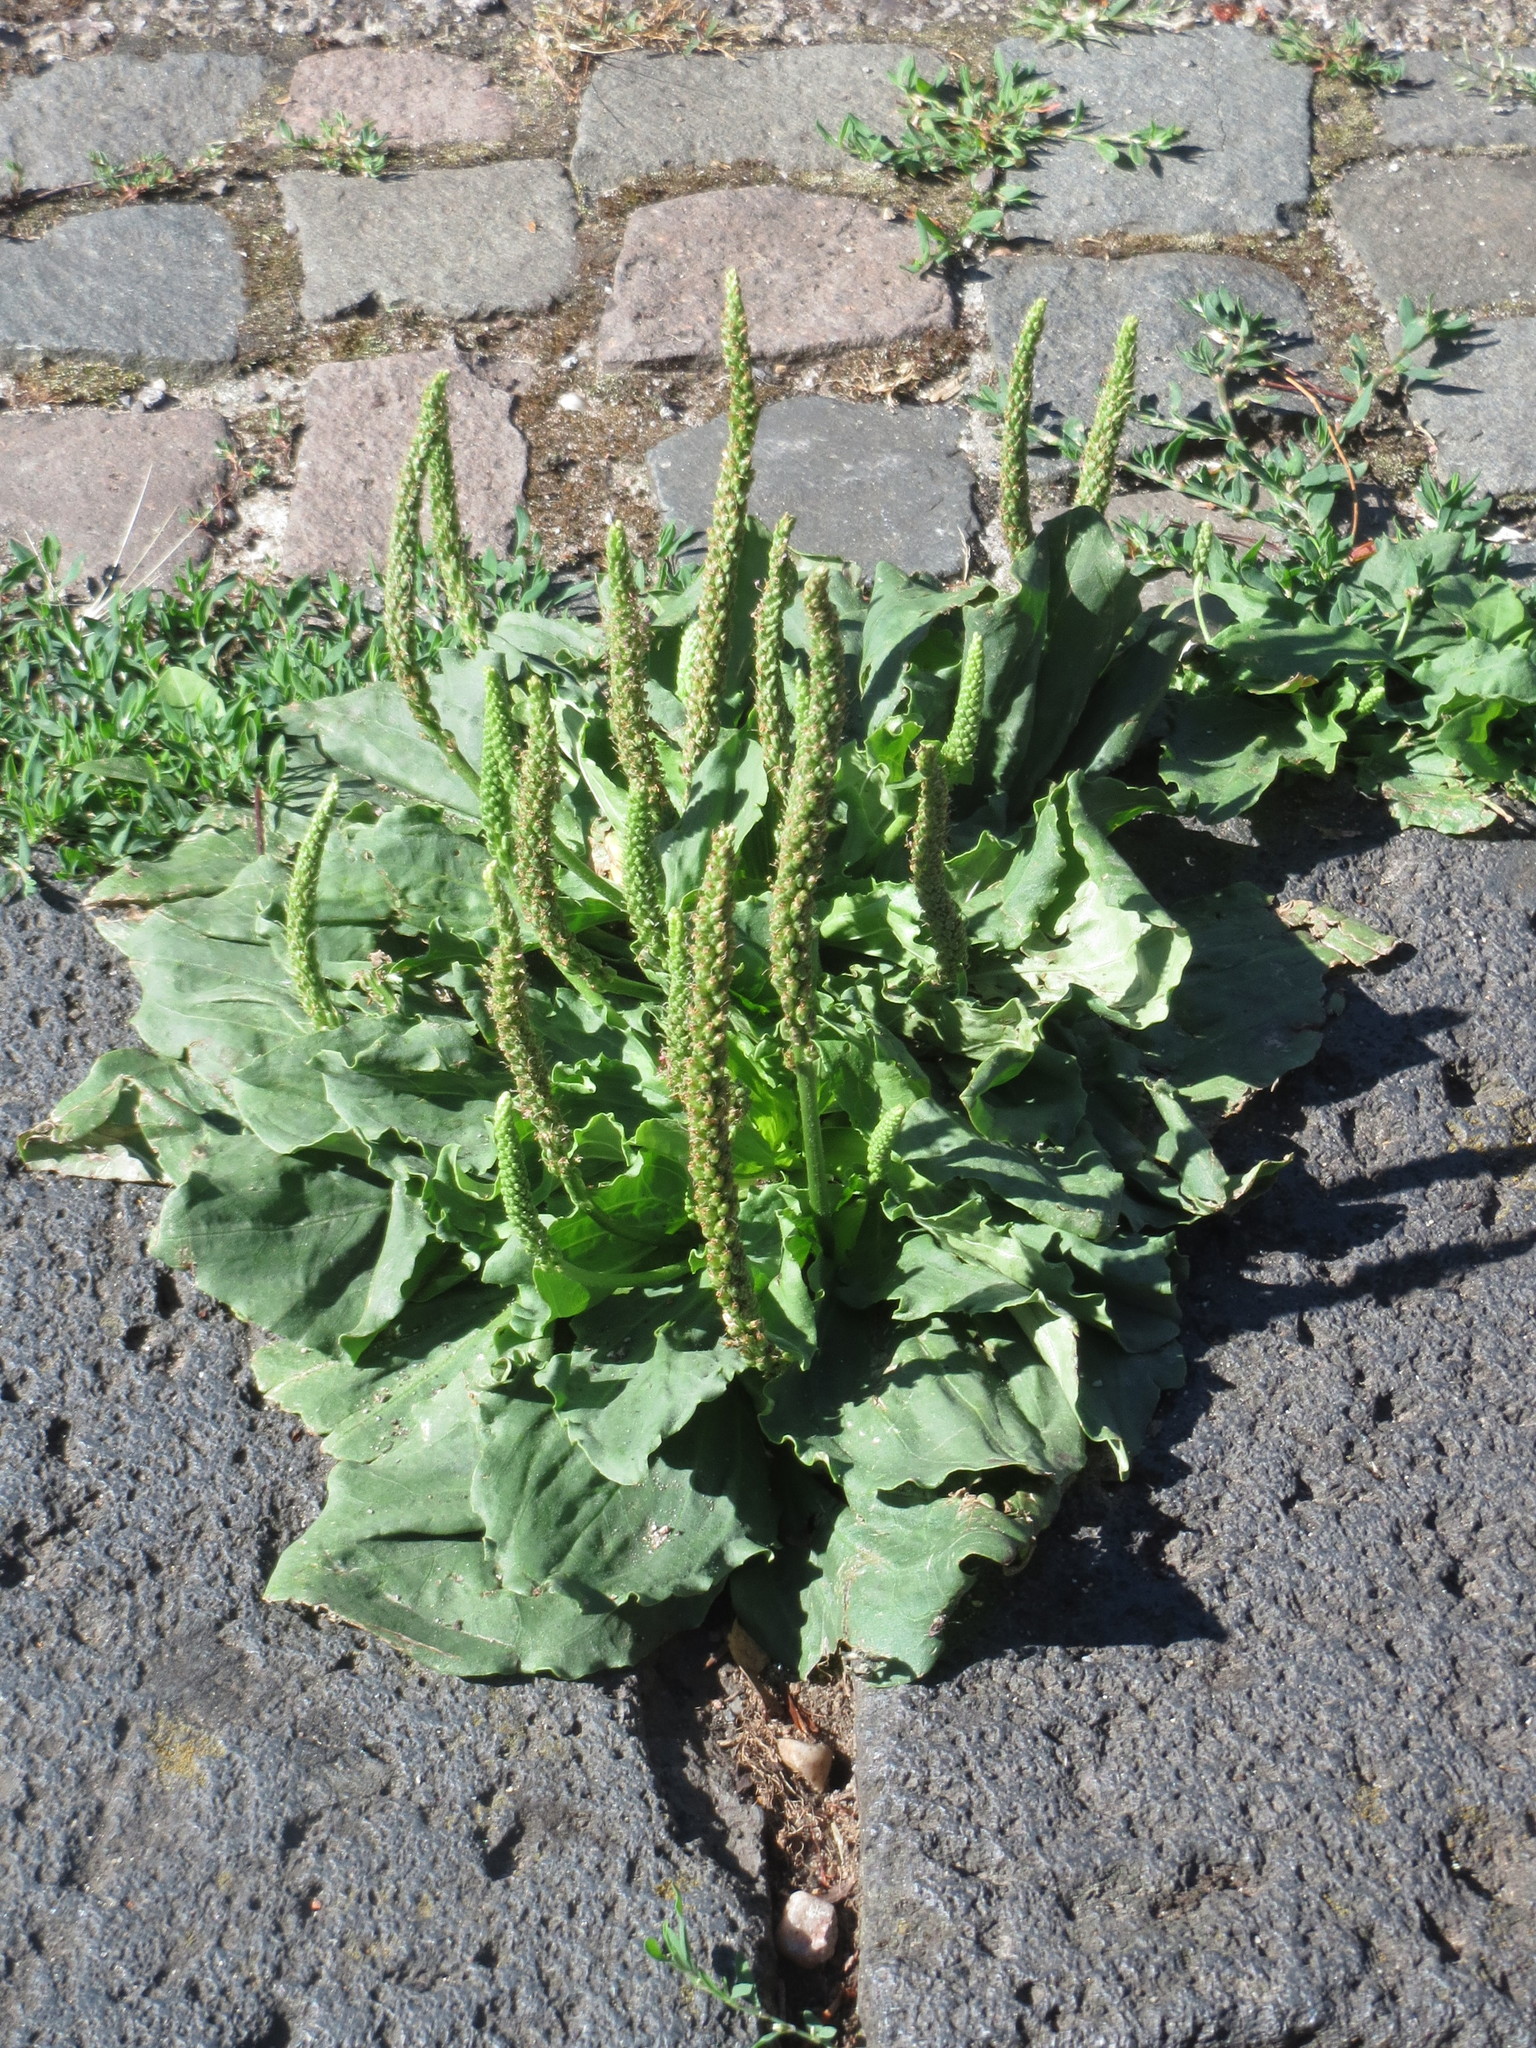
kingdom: Plantae
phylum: Tracheophyta
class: Magnoliopsida
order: Lamiales
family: Plantaginaceae
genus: Plantago
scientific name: Plantago major
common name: Common plantain
